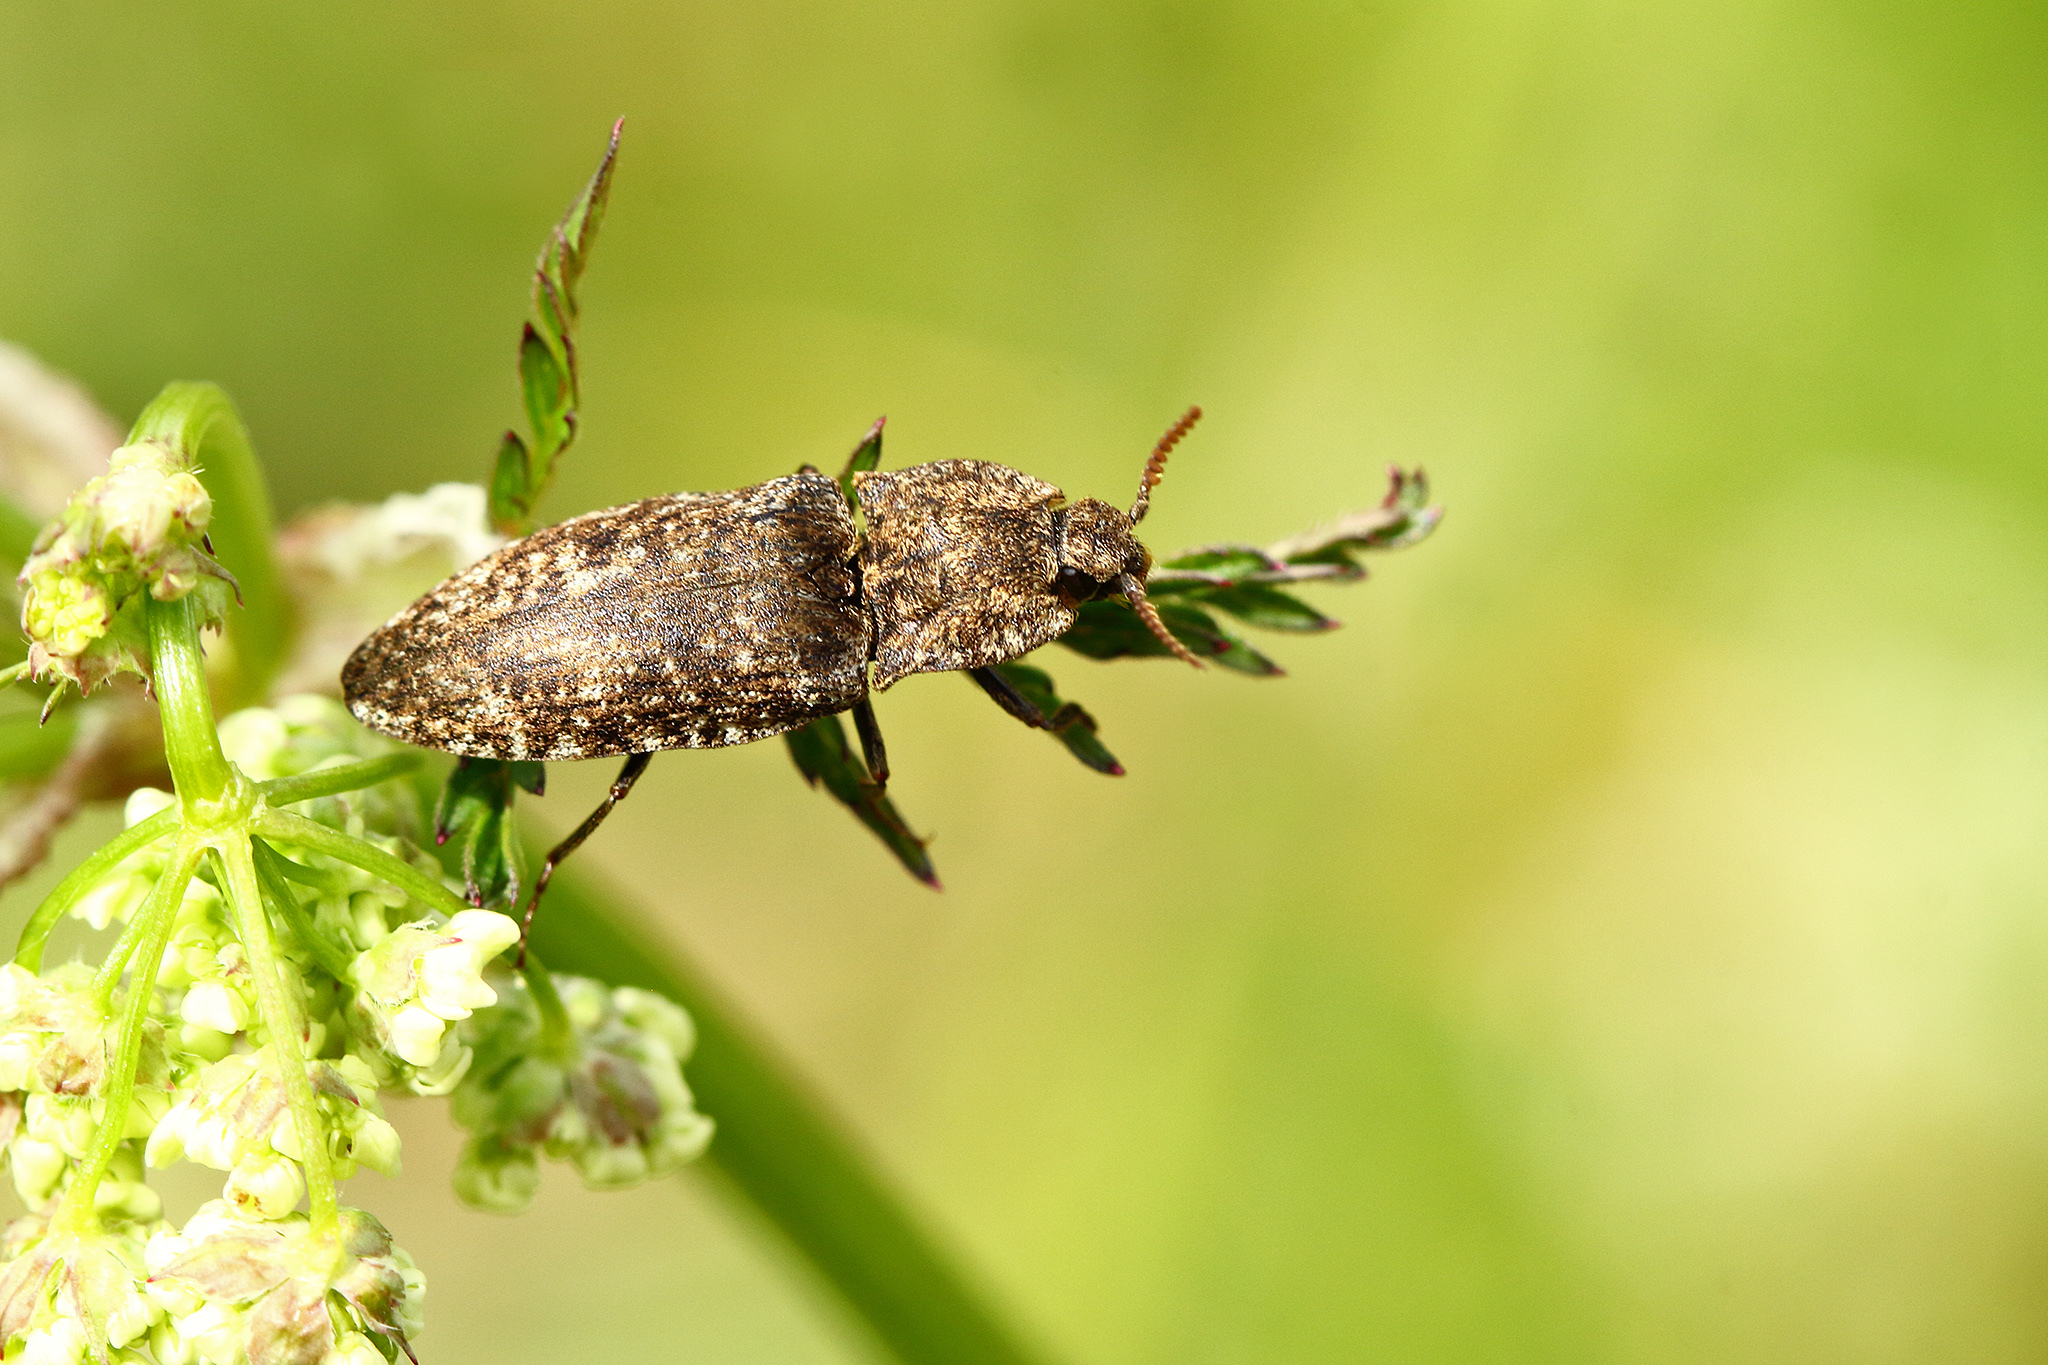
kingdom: Animalia
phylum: Arthropoda
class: Insecta
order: Coleoptera
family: Elateridae
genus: Agrypnus
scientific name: Agrypnus murinus
